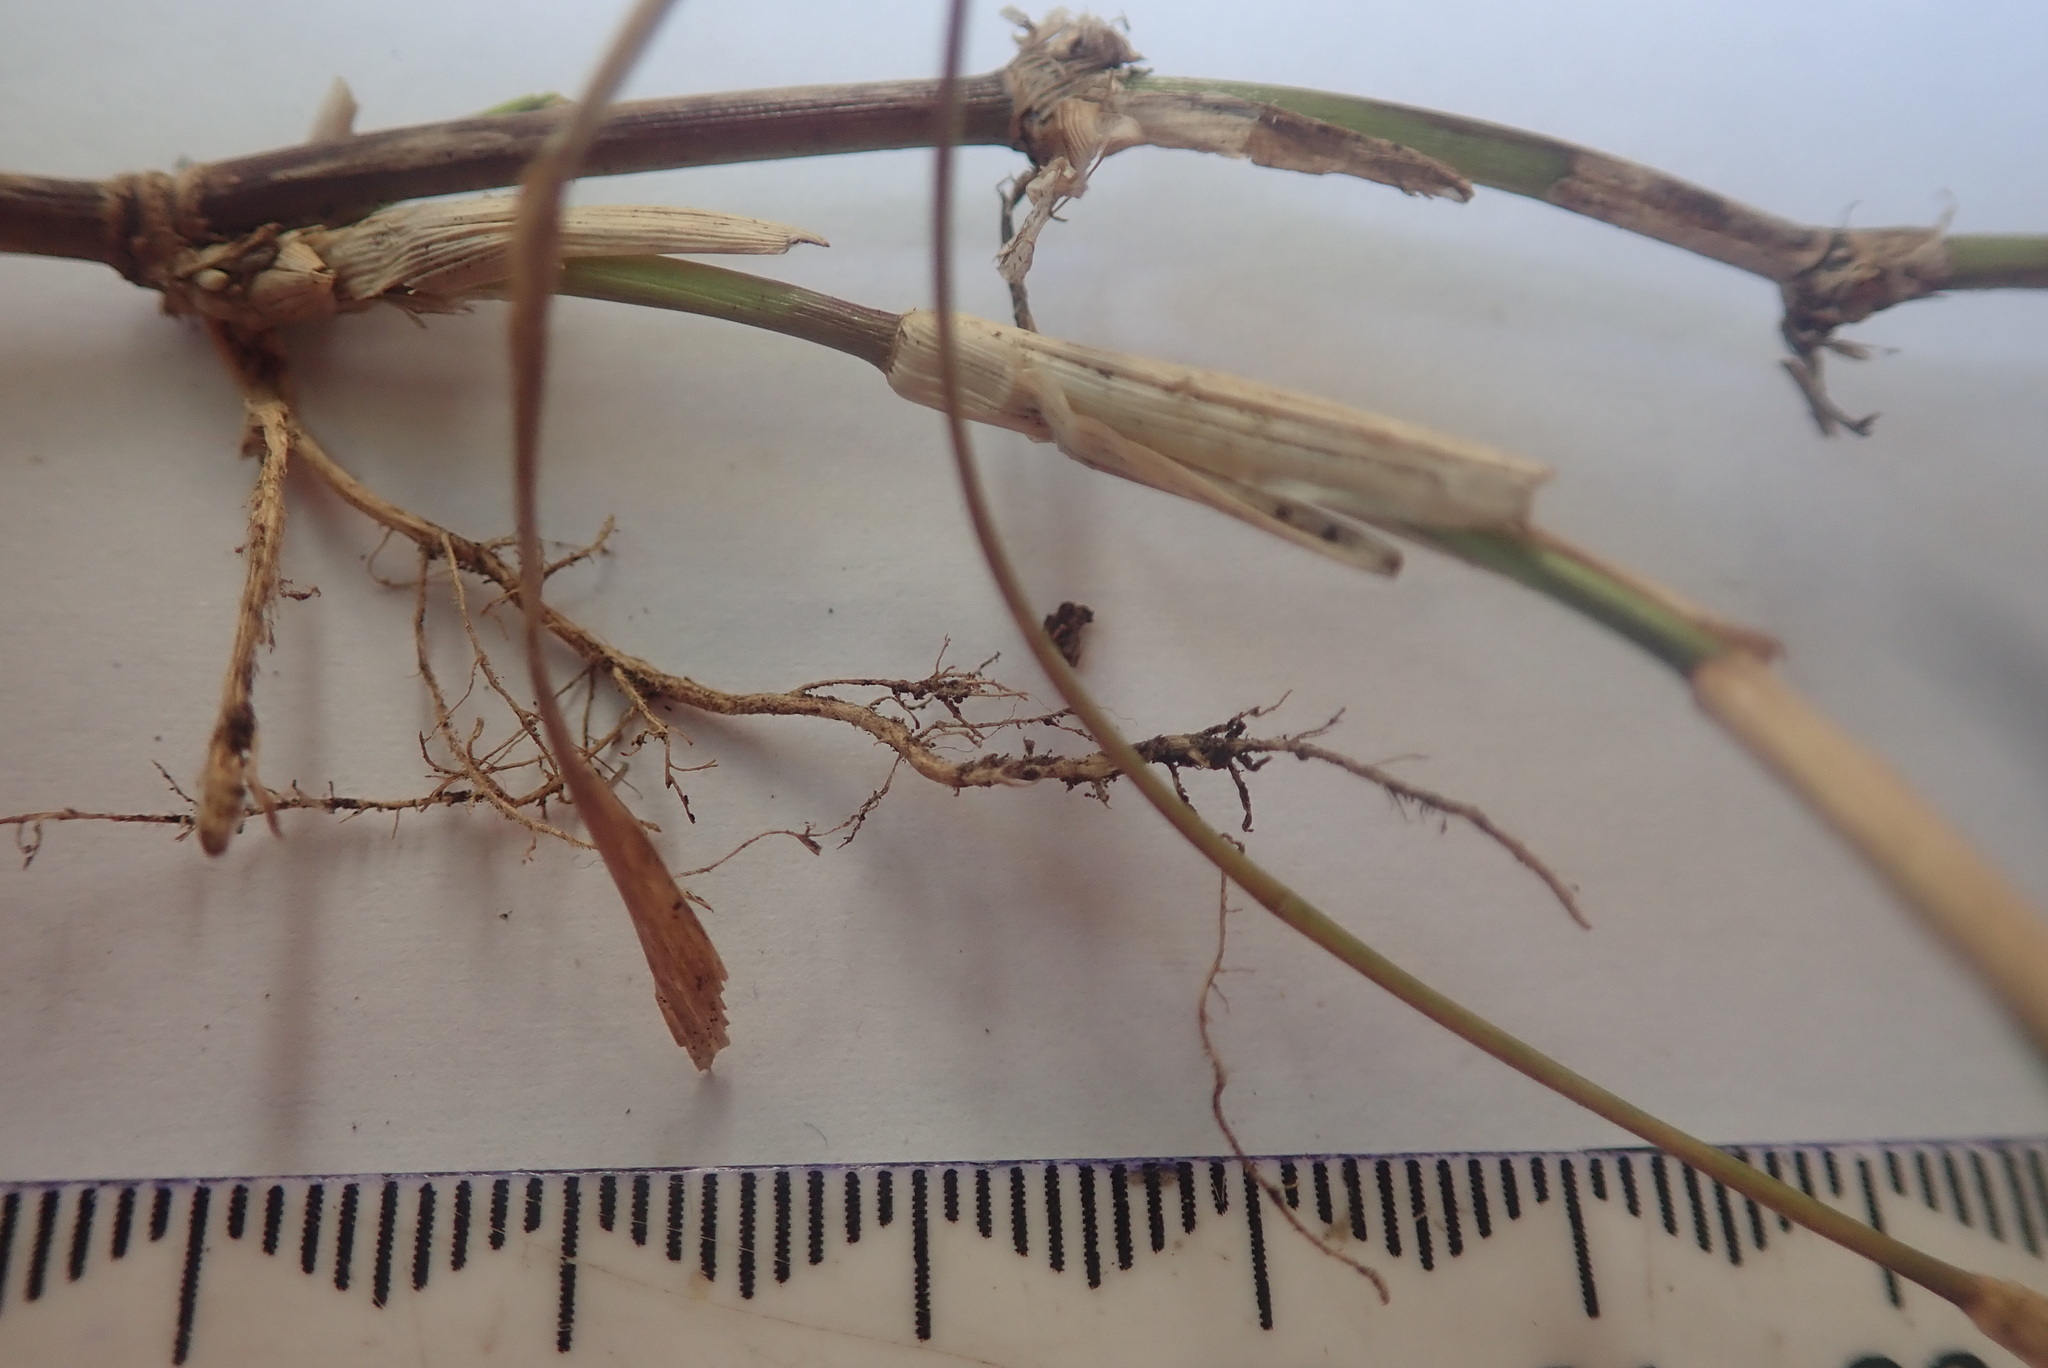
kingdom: Plantae
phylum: Tracheophyta
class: Liliopsida
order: Poales
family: Poaceae
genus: Cynodon
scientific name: Cynodon dactylon
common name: Bermuda grass
